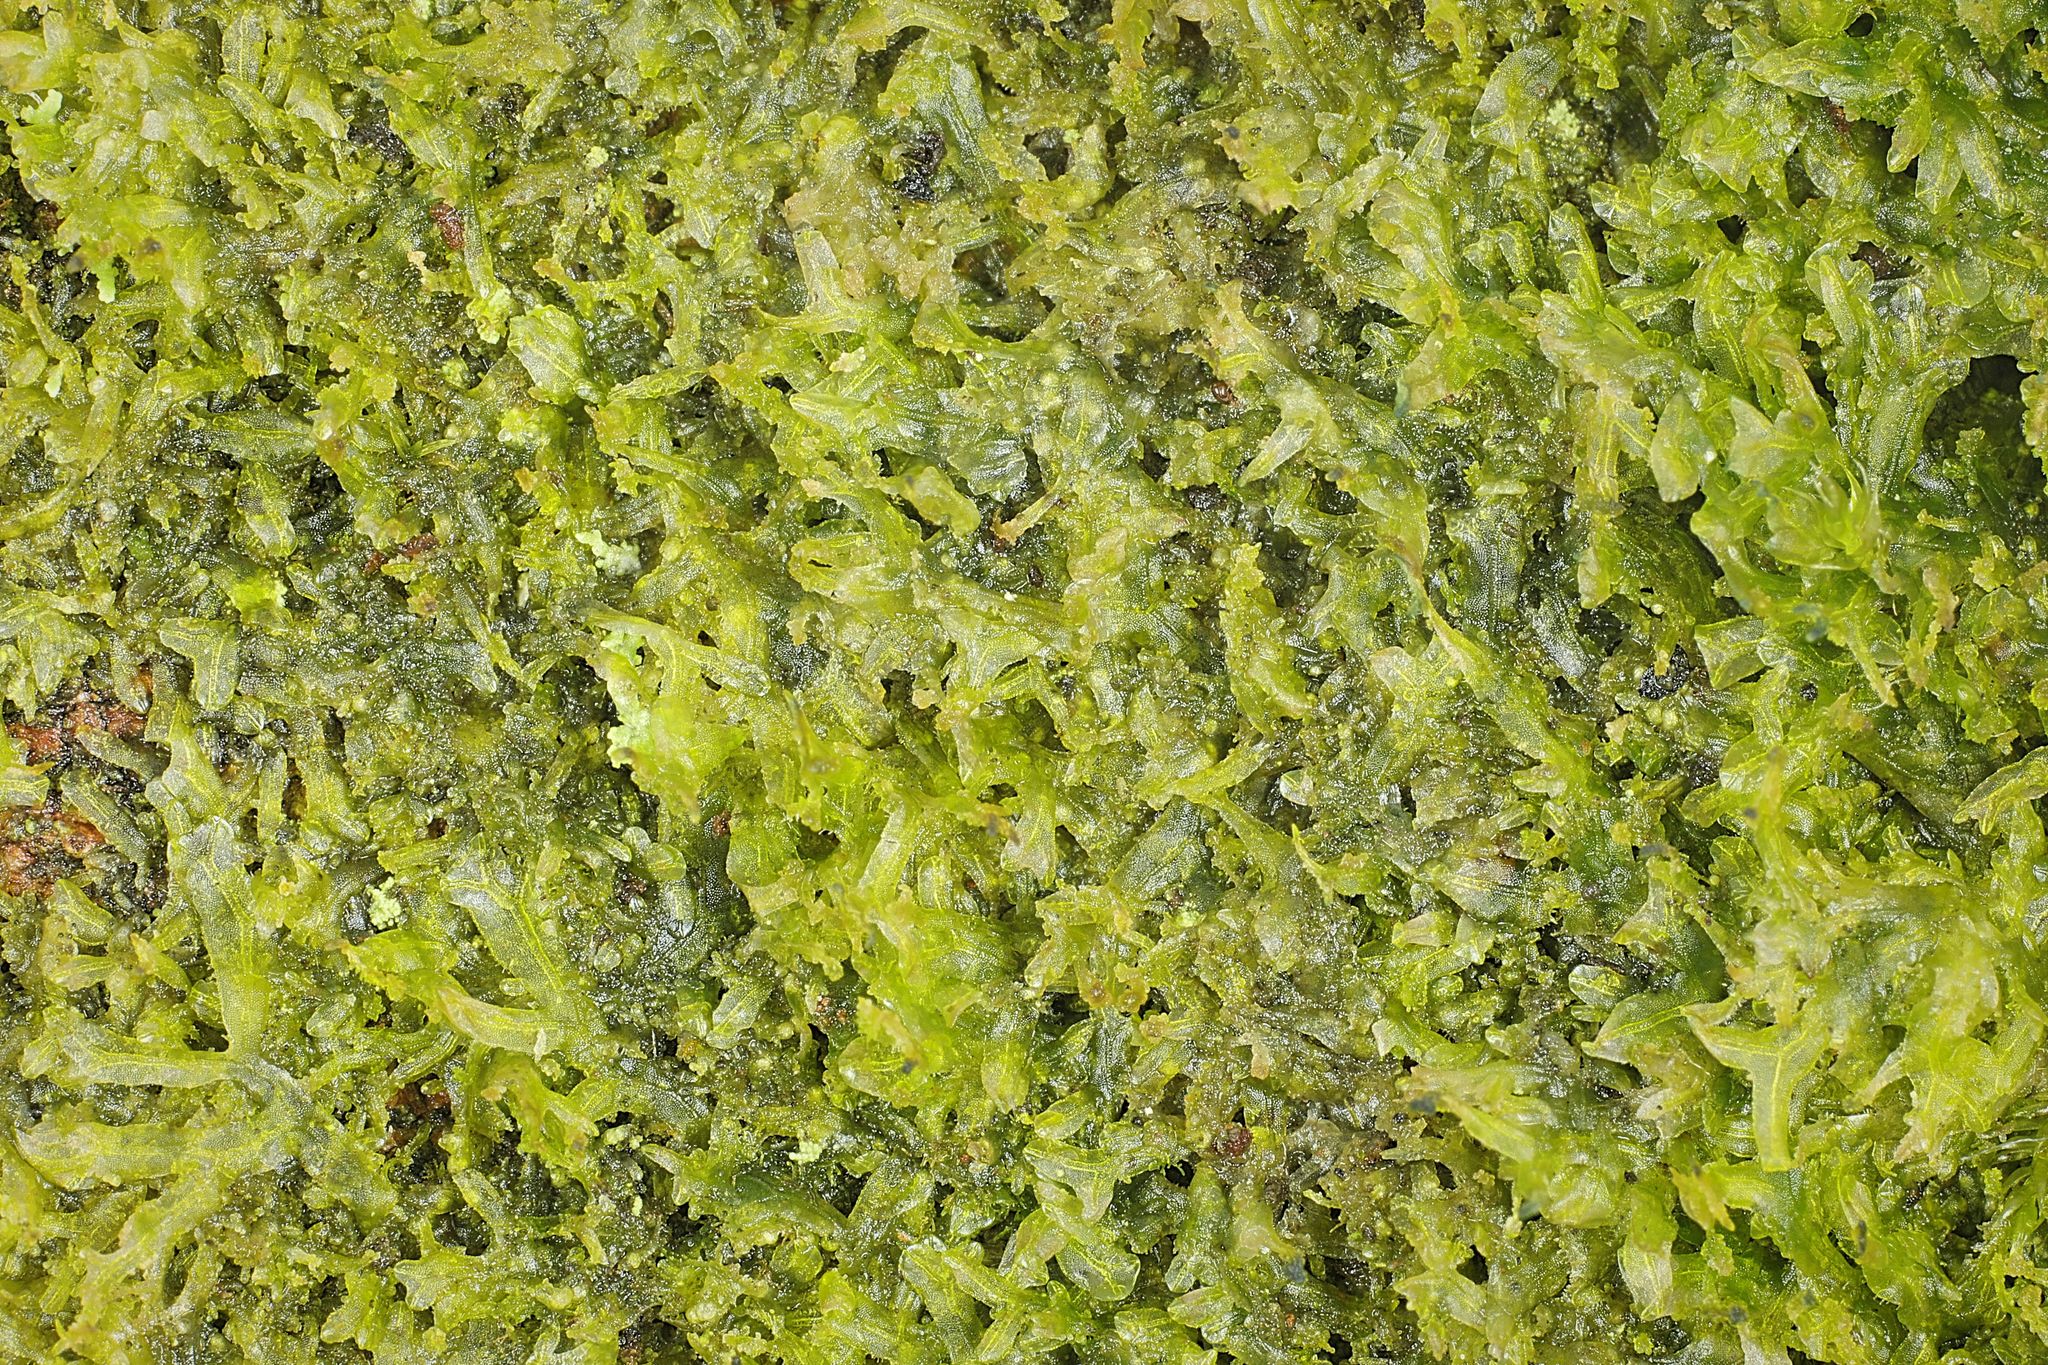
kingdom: Plantae
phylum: Marchantiophyta
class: Jungermanniopsida
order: Metzgeriales
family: Metzgeriaceae
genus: Metzgeria
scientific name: Metzgeria furcata
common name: Forked veilwort
